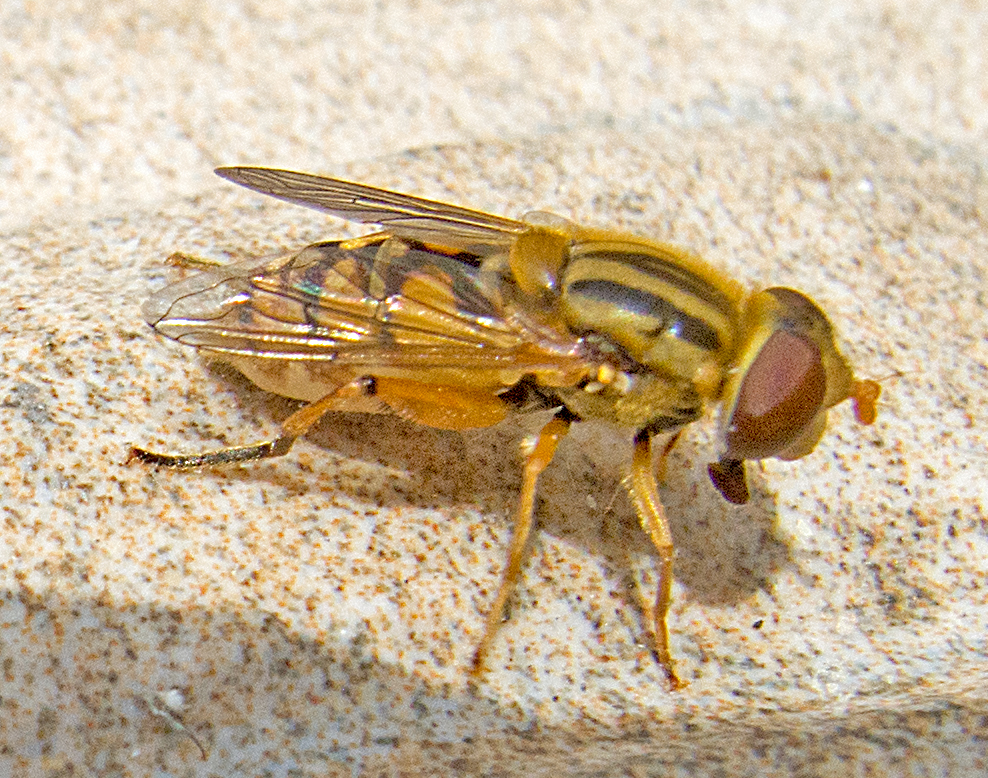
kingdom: Animalia
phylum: Arthropoda
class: Insecta
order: Diptera
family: Syrphidae
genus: Parhelophilus
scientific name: Parhelophilus
